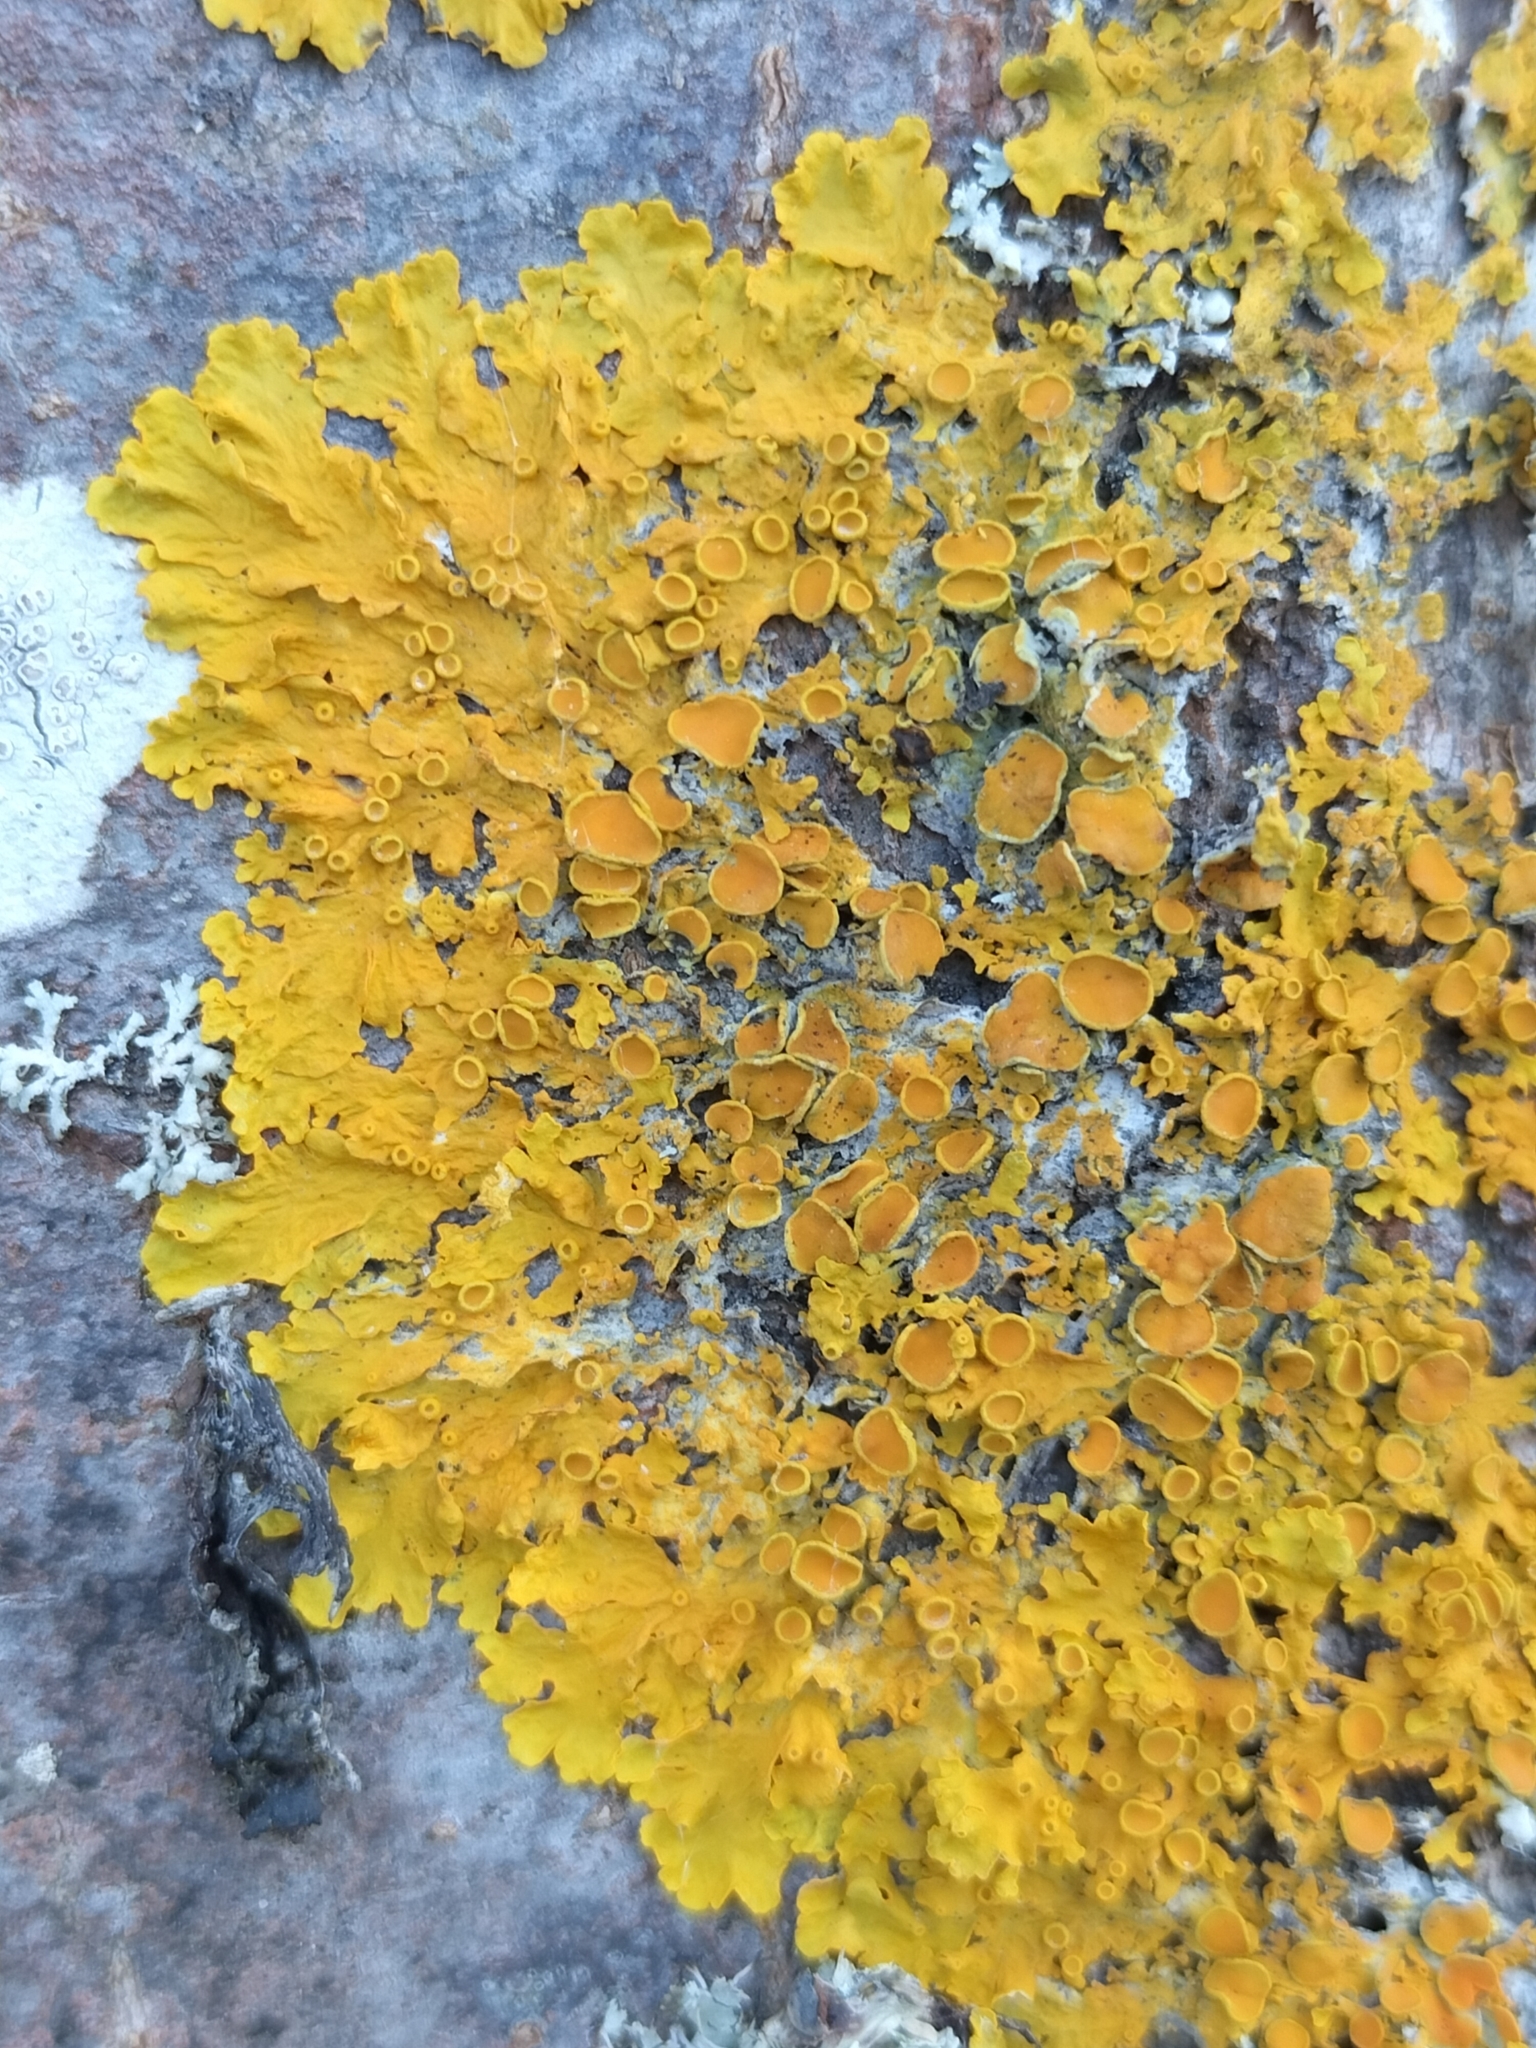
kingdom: Fungi
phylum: Ascomycota
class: Lecanoromycetes
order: Teloschistales
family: Teloschistaceae
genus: Xanthoria
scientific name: Xanthoria parietina
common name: Common orange lichen
